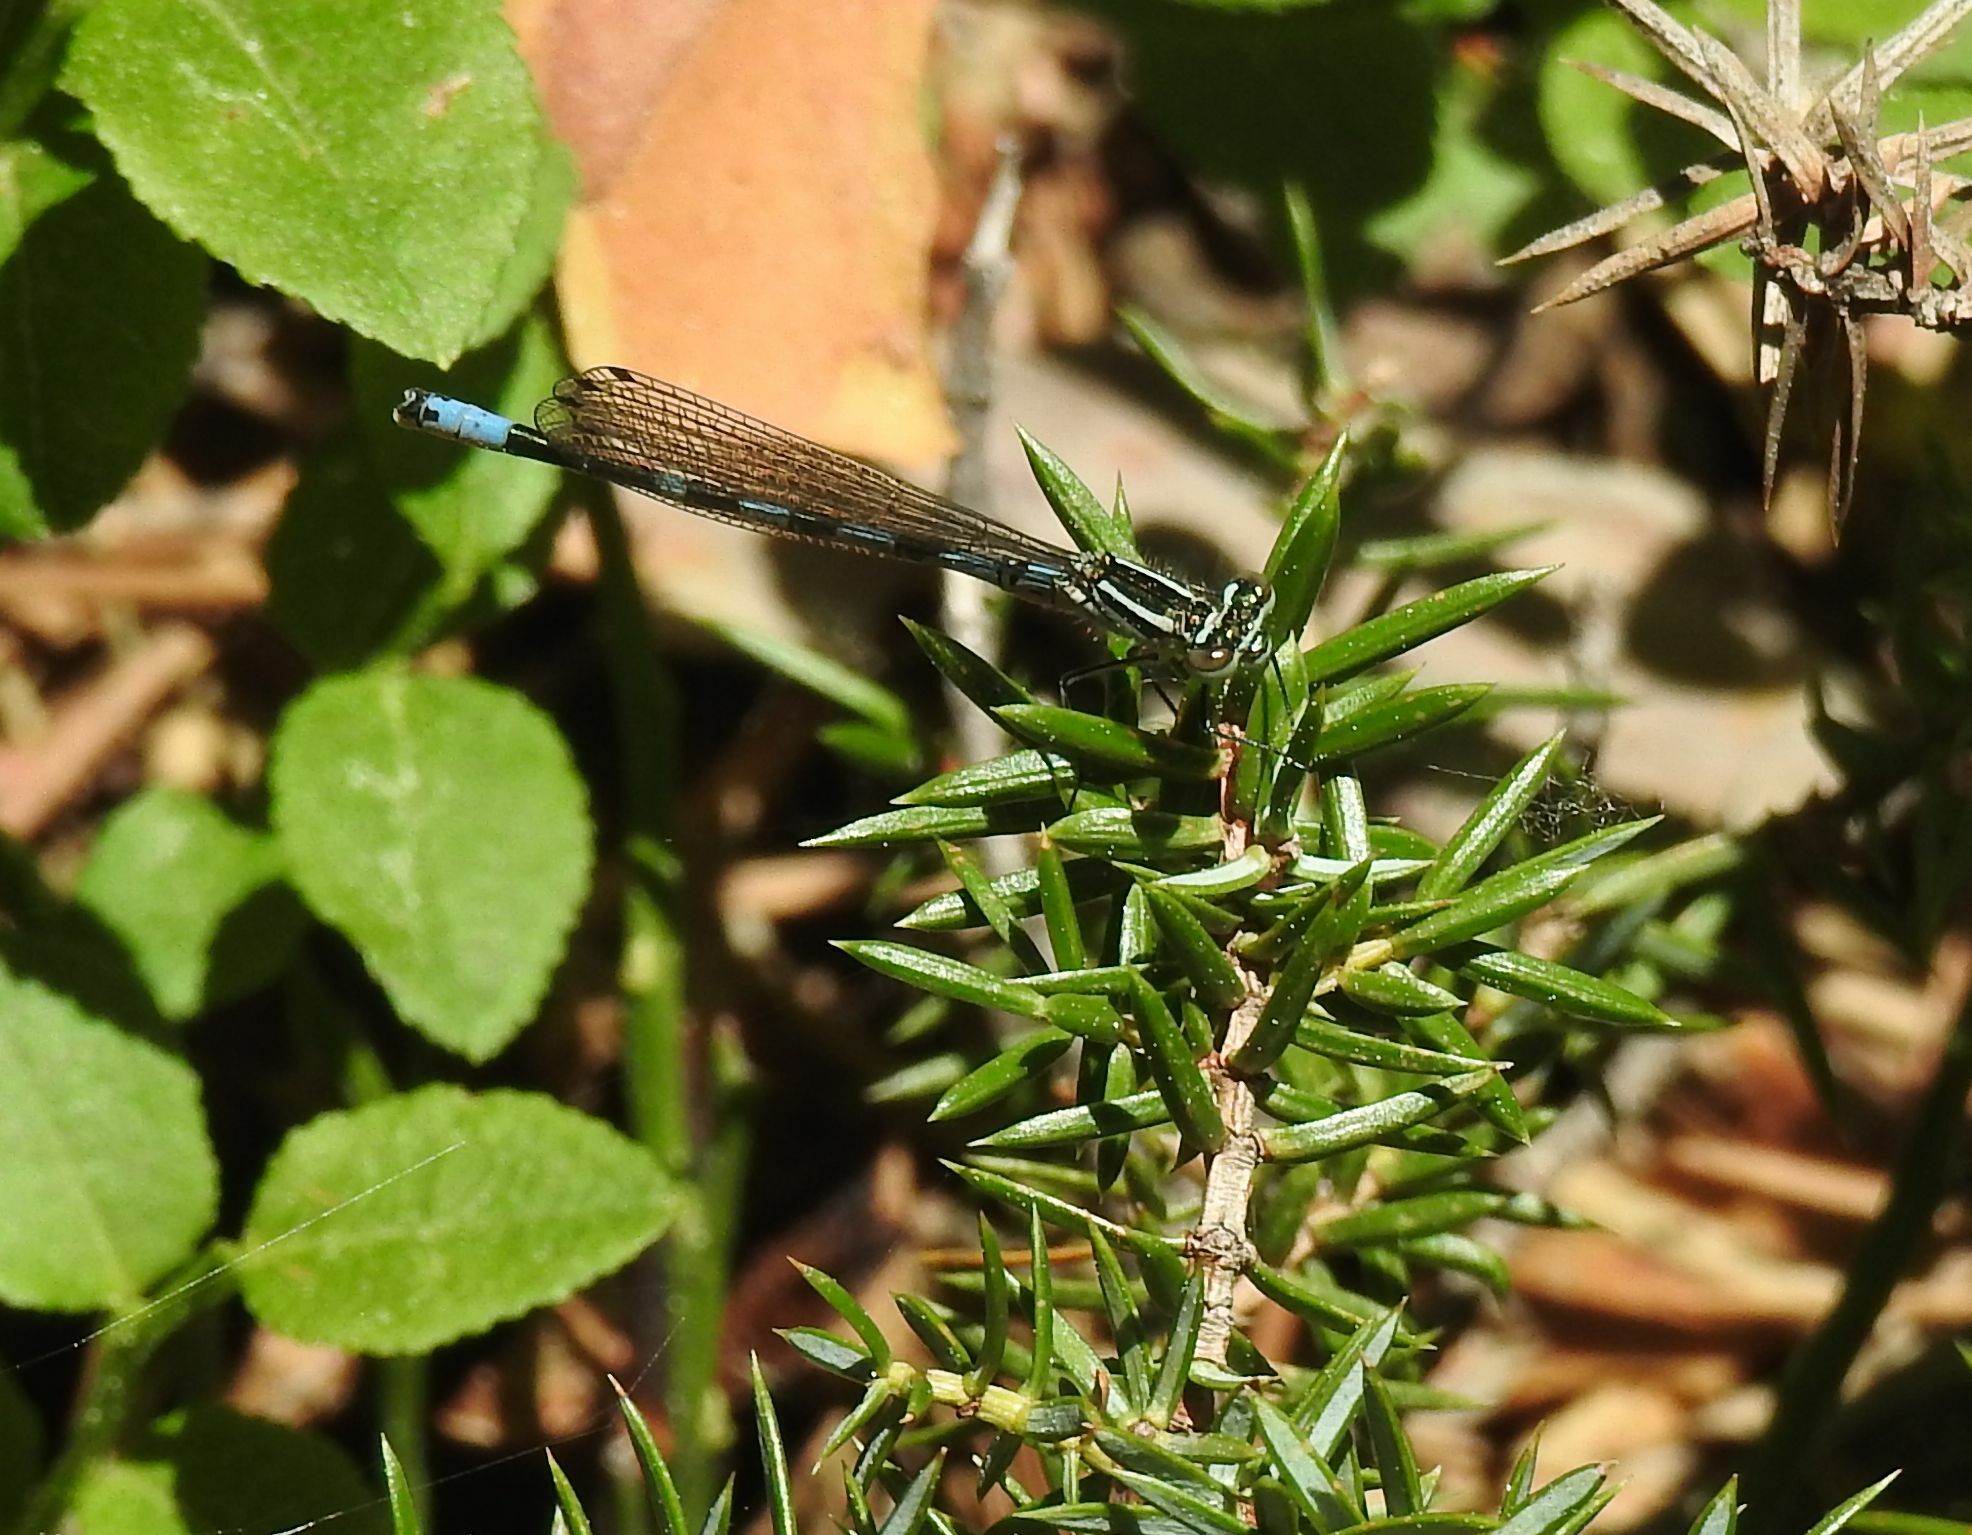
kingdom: Animalia
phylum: Arthropoda
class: Insecta
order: Odonata
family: Coenagrionidae
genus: Coenagrion
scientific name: Coenagrion hastulatum
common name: Spearhead bluet
